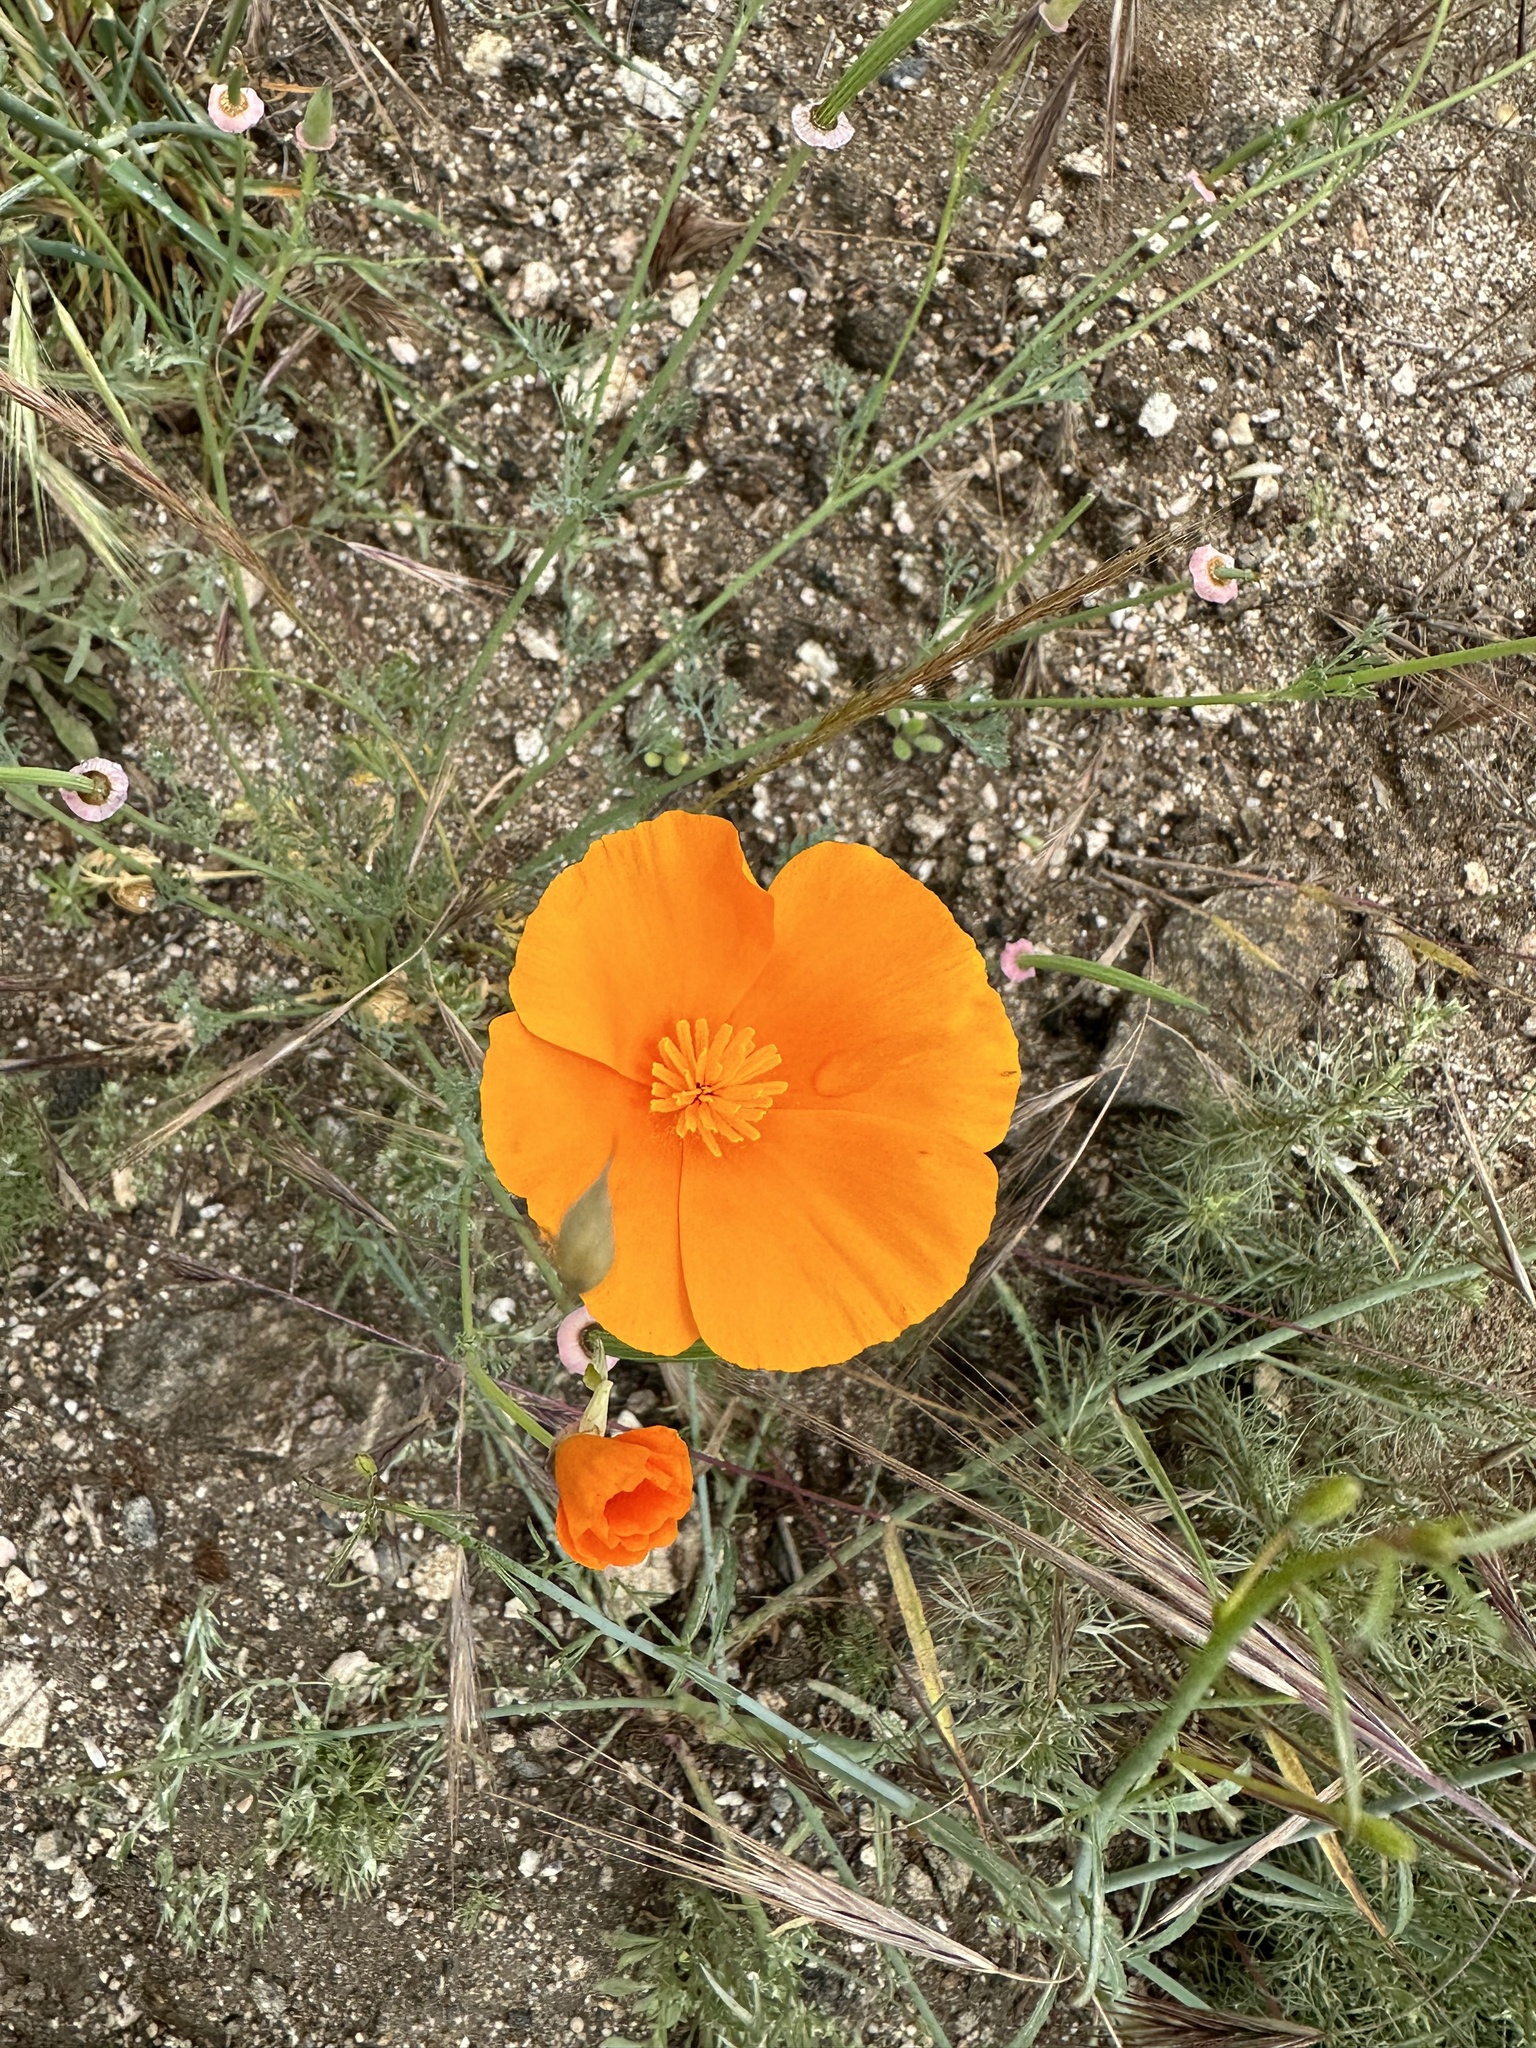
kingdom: Plantae
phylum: Tracheophyta
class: Magnoliopsida
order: Ranunculales
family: Papaveraceae
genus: Eschscholzia
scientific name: Eschscholzia californica
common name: California poppy
